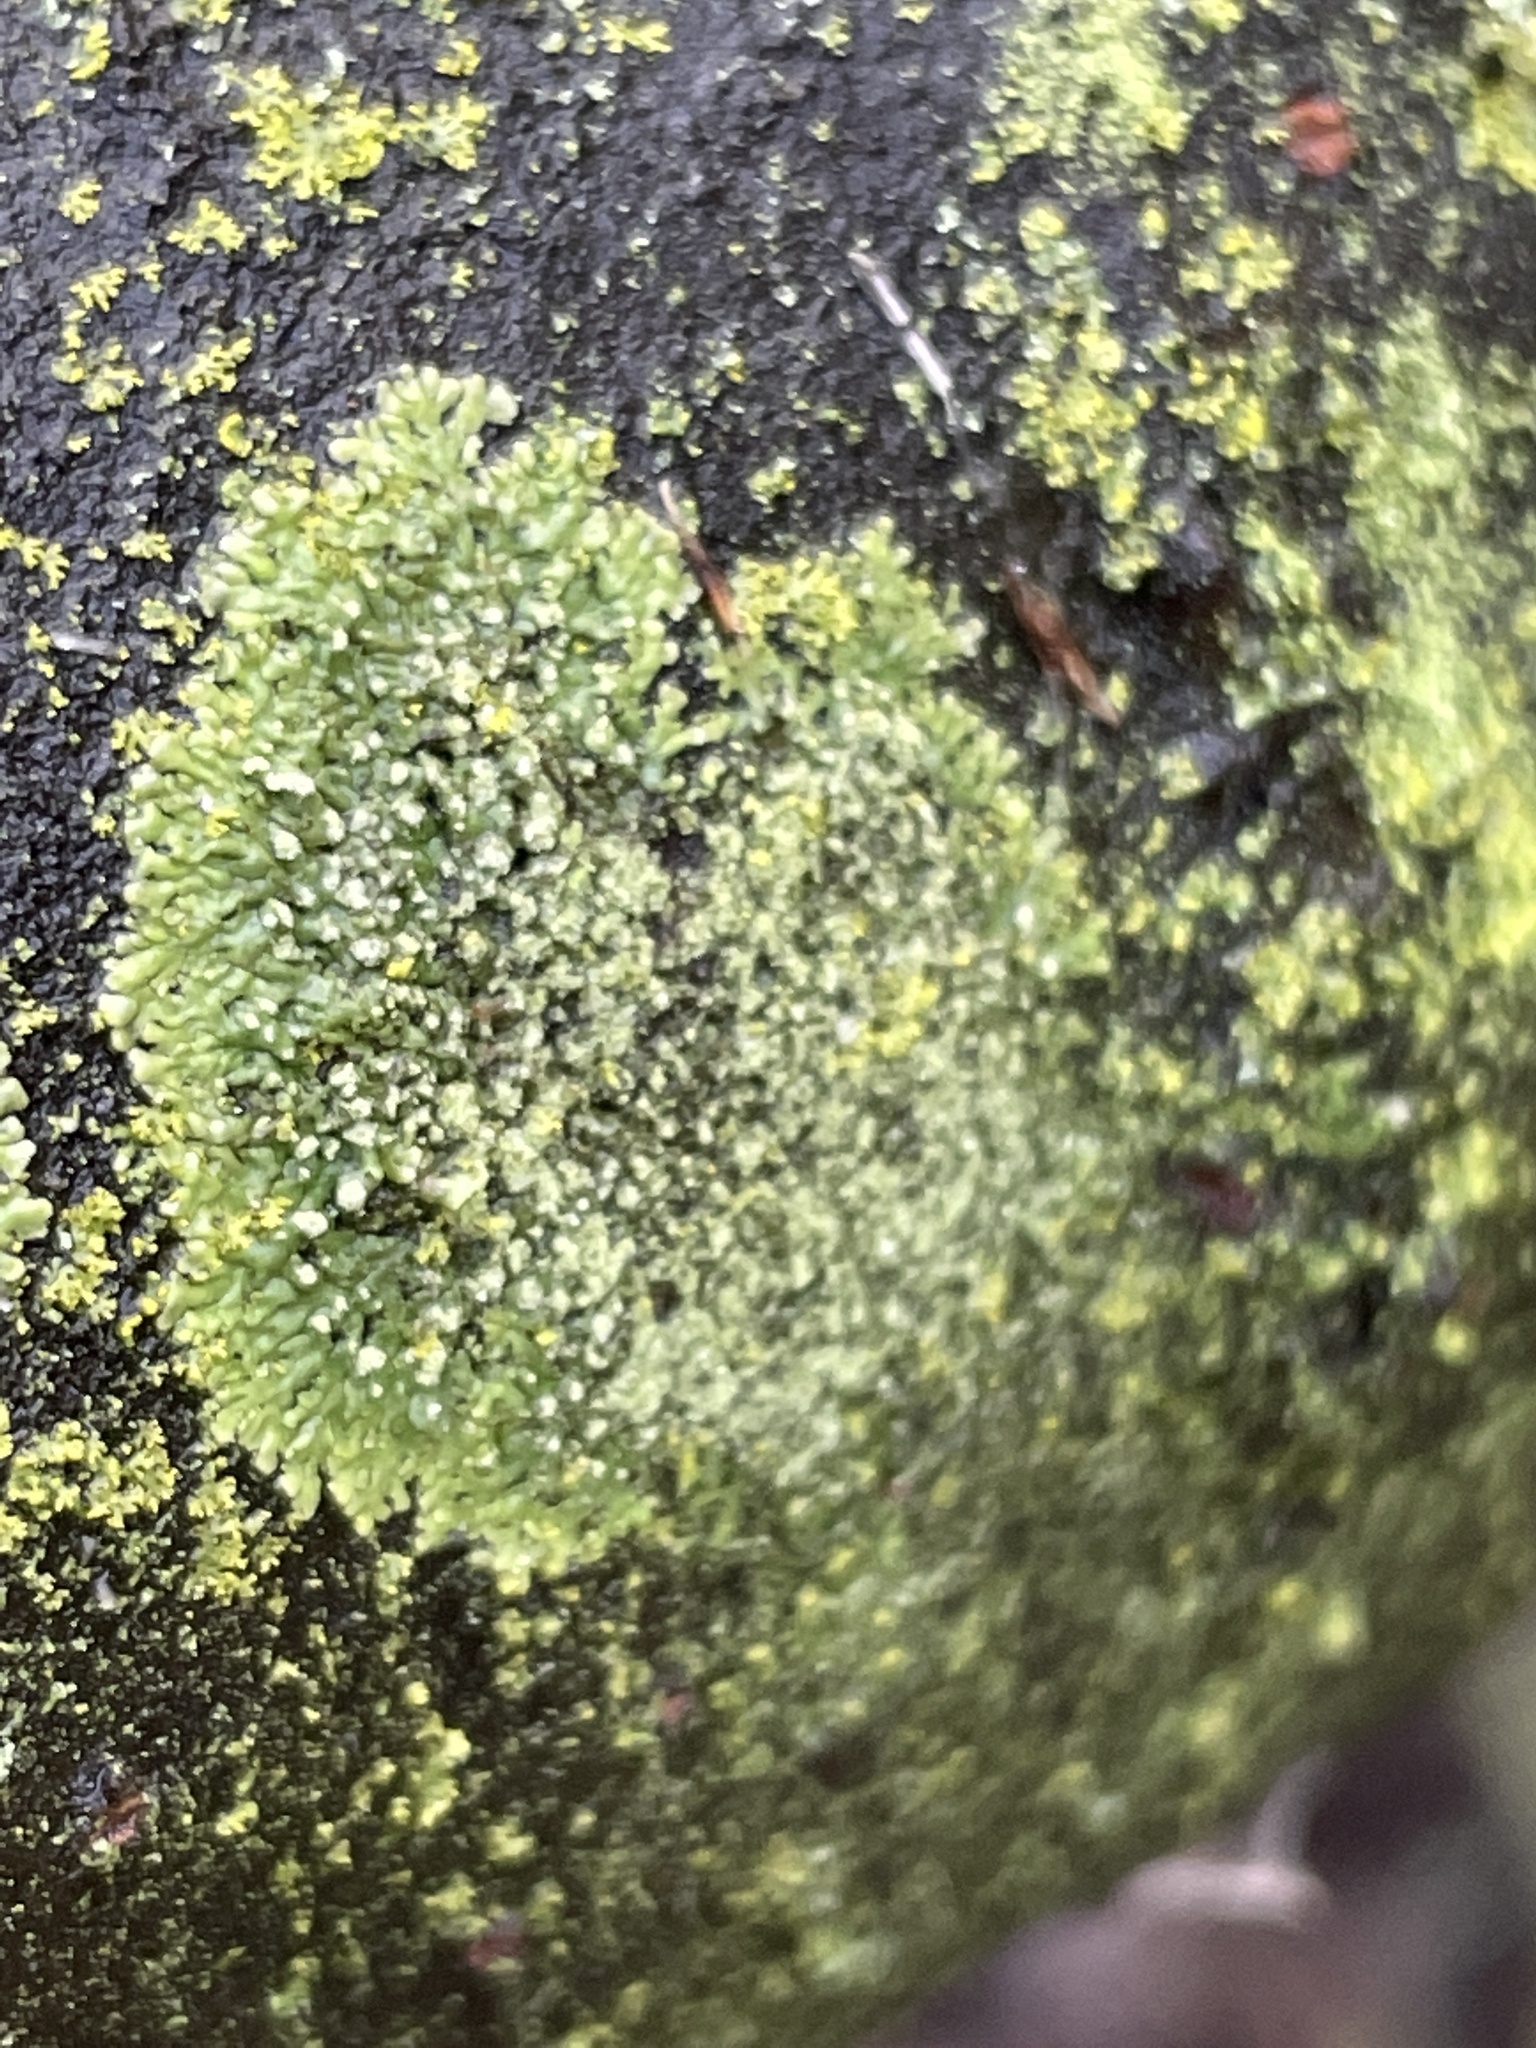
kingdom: Fungi
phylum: Ascomycota
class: Lecanoromycetes
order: Caliciales
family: Physciaceae
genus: Hyperphyscia
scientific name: Hyperphyscia adglutinata
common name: Grainy shadow-crust lichen
